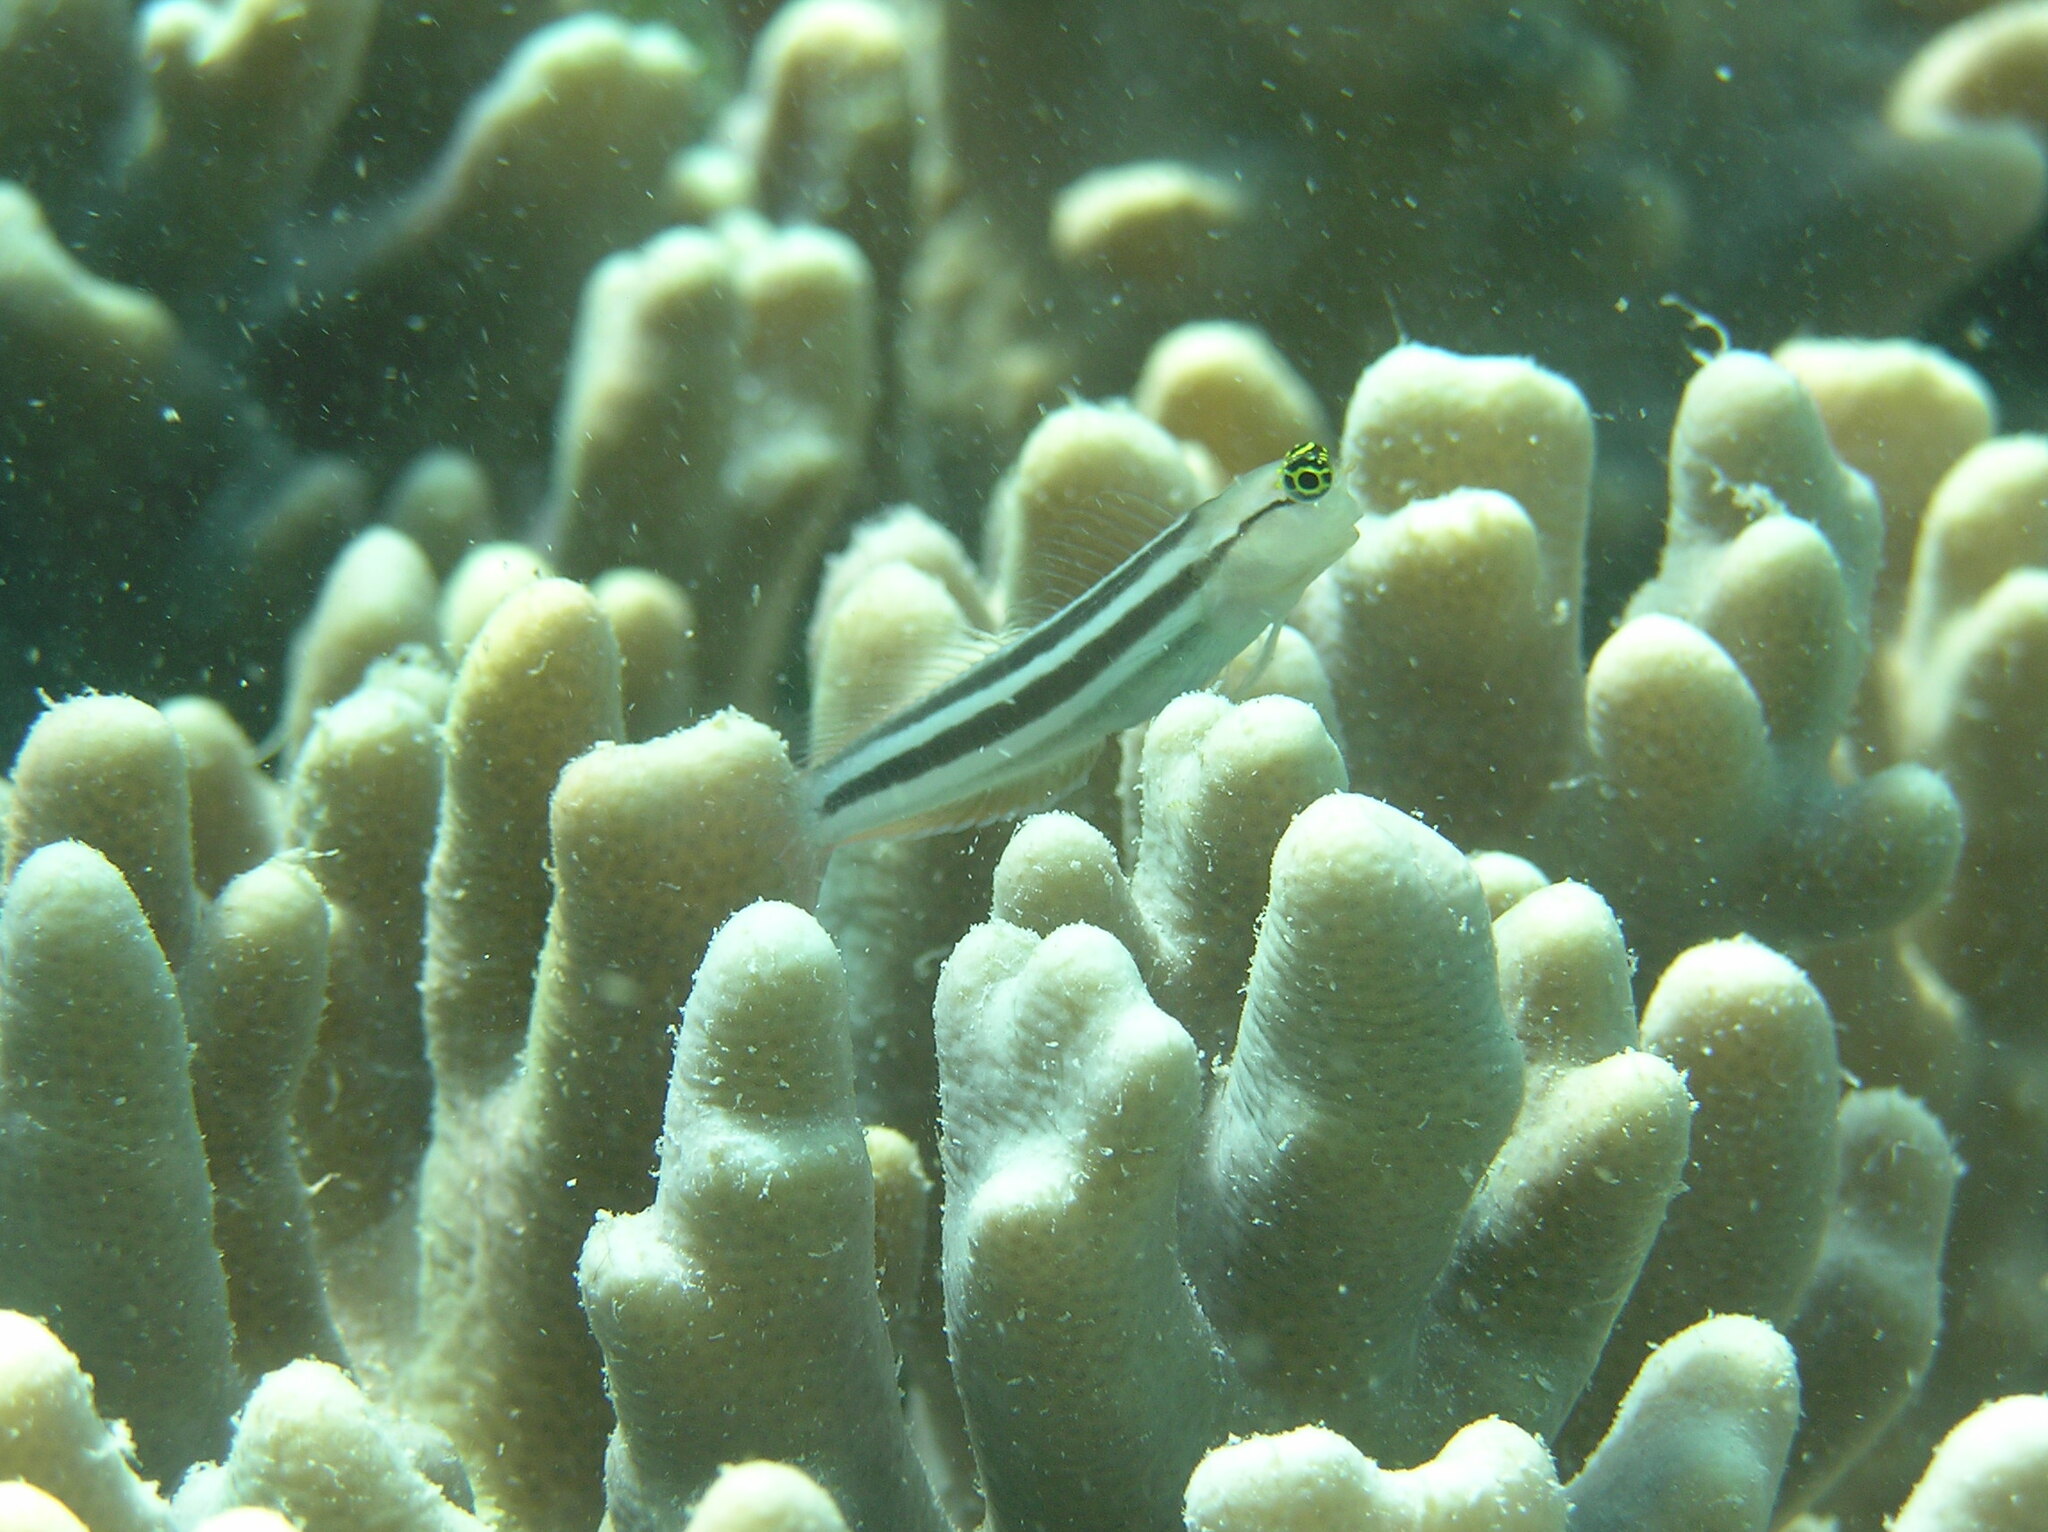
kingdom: Animalia
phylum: Chordata
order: Perciformes
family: Blenniidae
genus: Ecsenius
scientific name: Ecsenius prooculis
